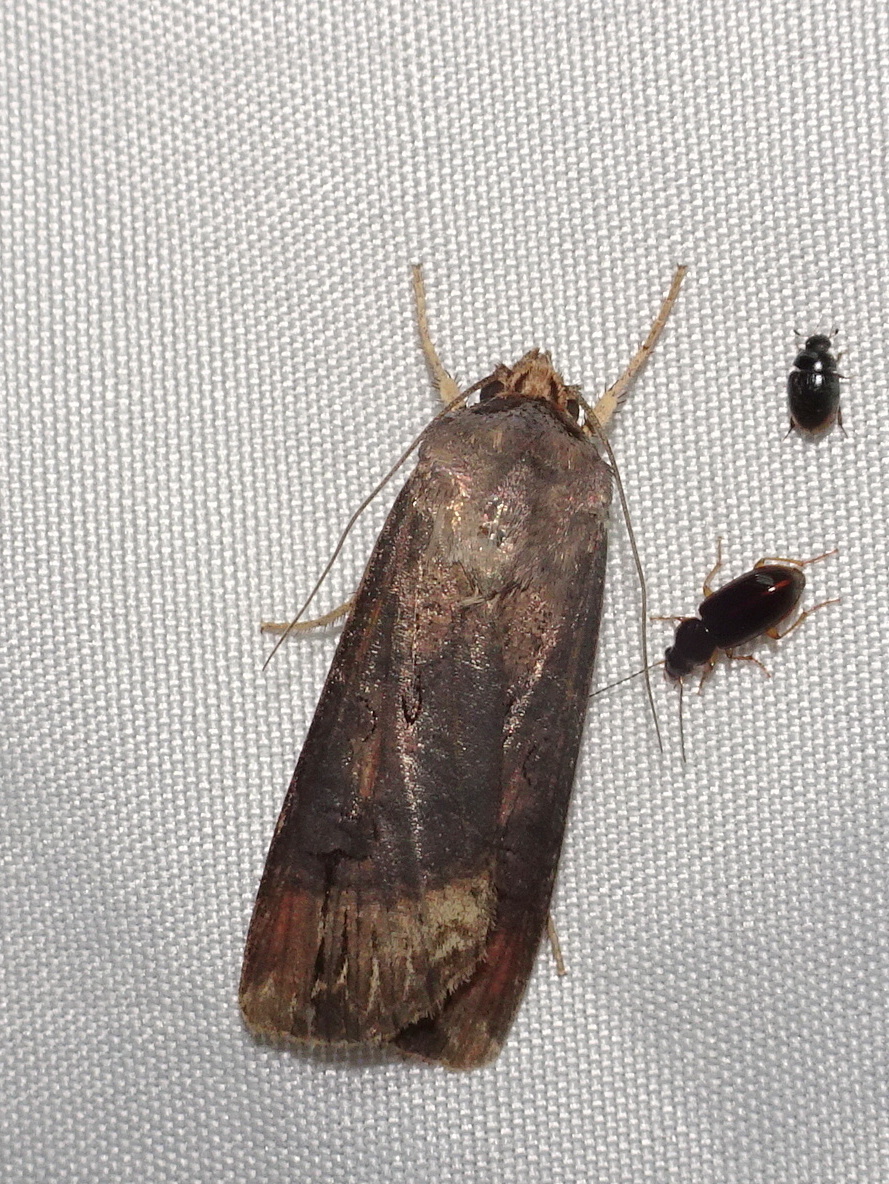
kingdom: Animalia
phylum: Arthropoda
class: Insecta
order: Lepidoptera
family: Noctuidae
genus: Agrotis
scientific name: Agrotis ipsilon
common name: Dark sword-grass
